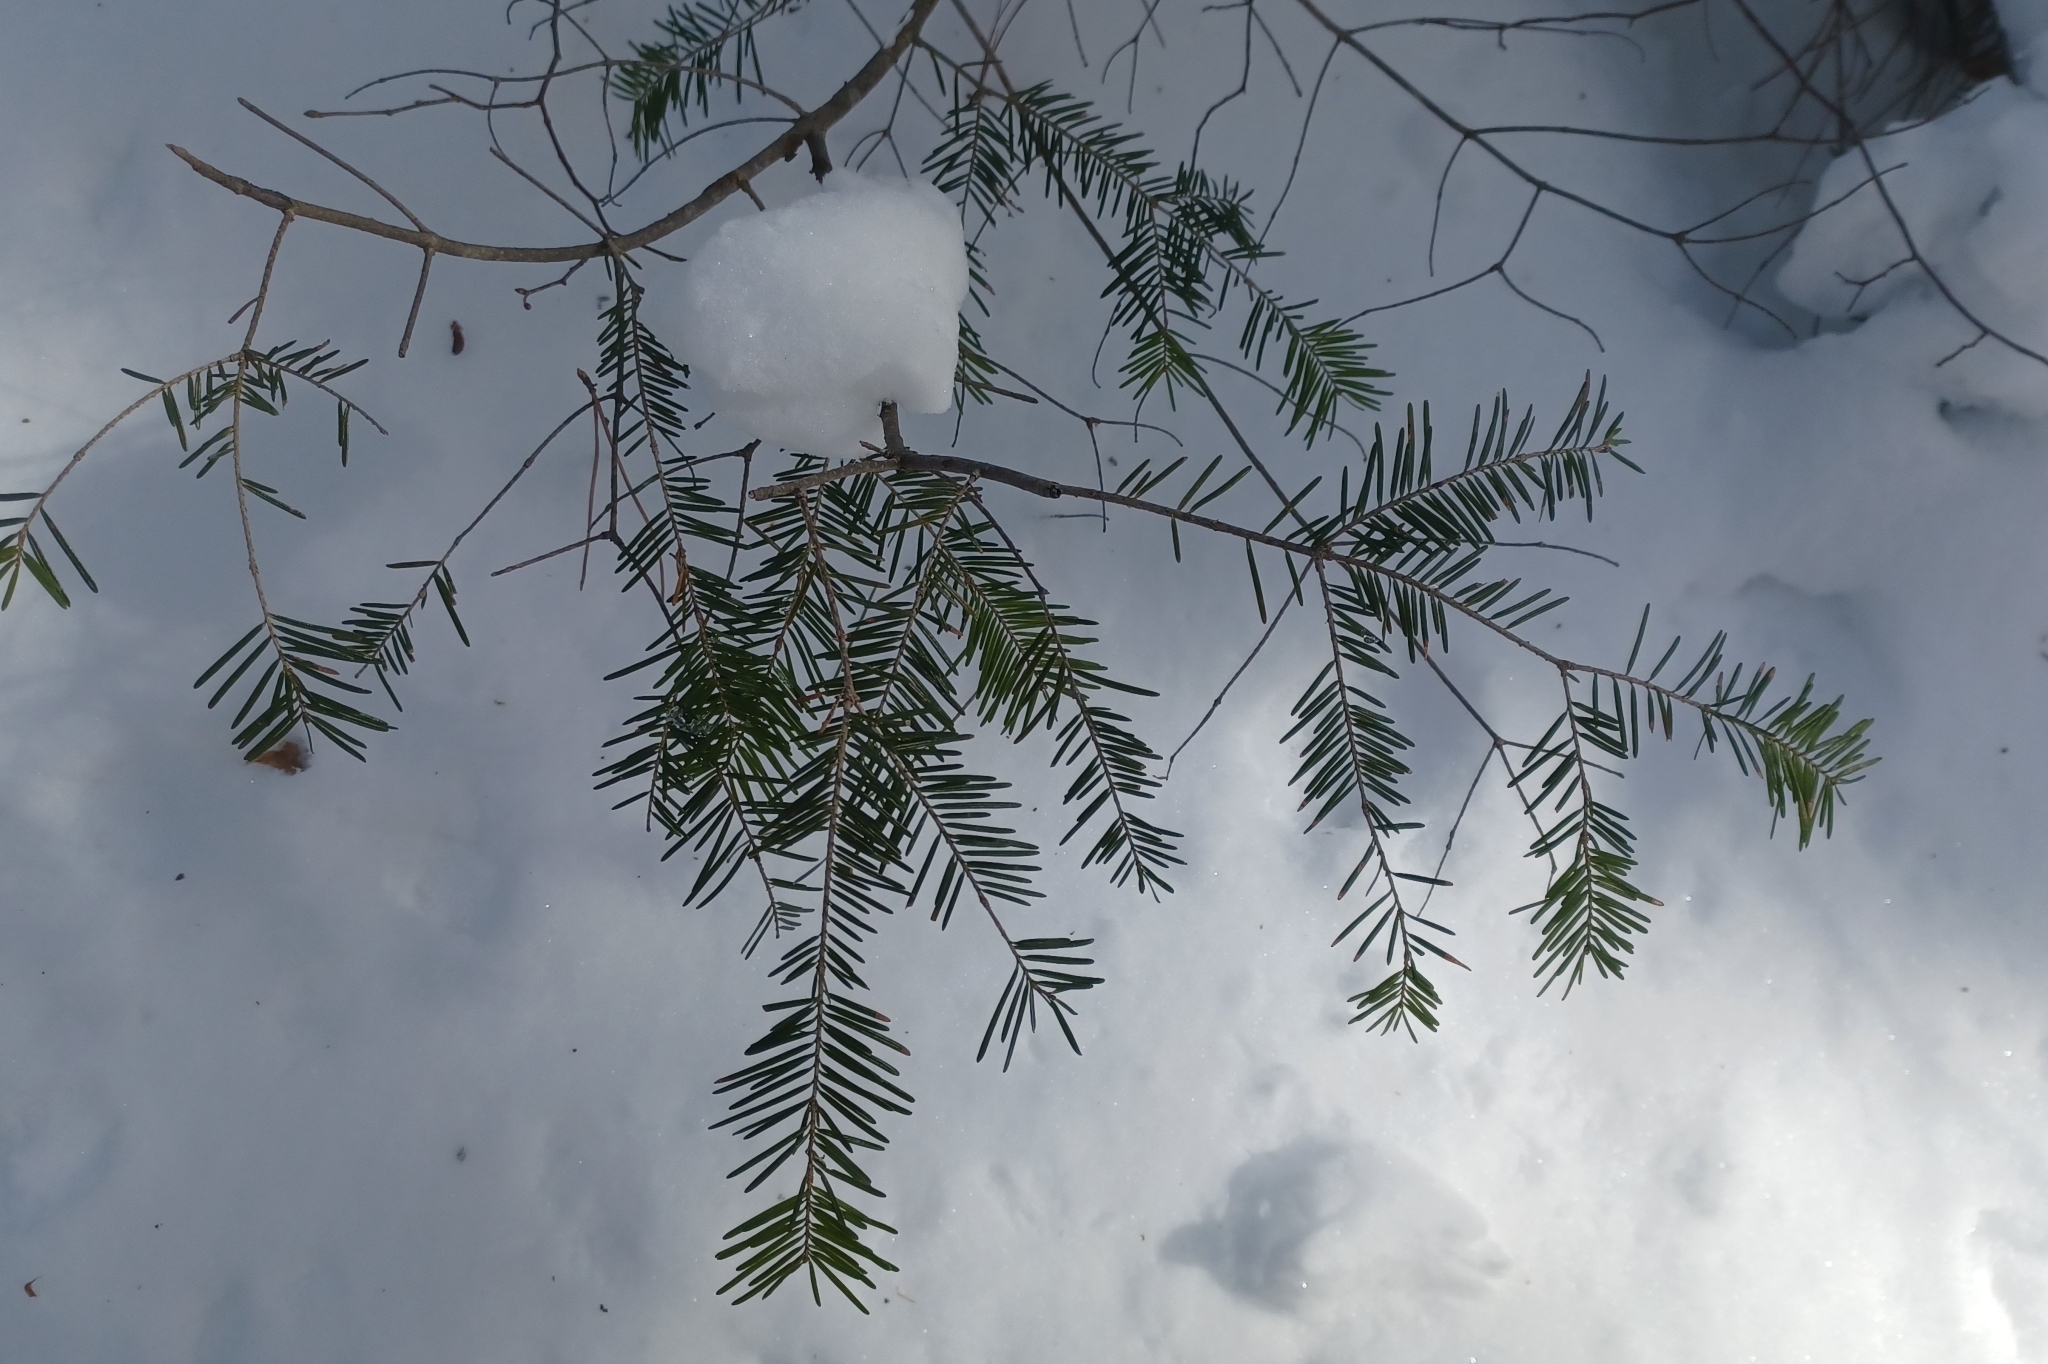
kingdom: Plantae
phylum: Tracheophyta
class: Pinopsida
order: Pinales
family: Pinaceae
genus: Abies
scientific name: Abies balsamea
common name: Balsam fir
